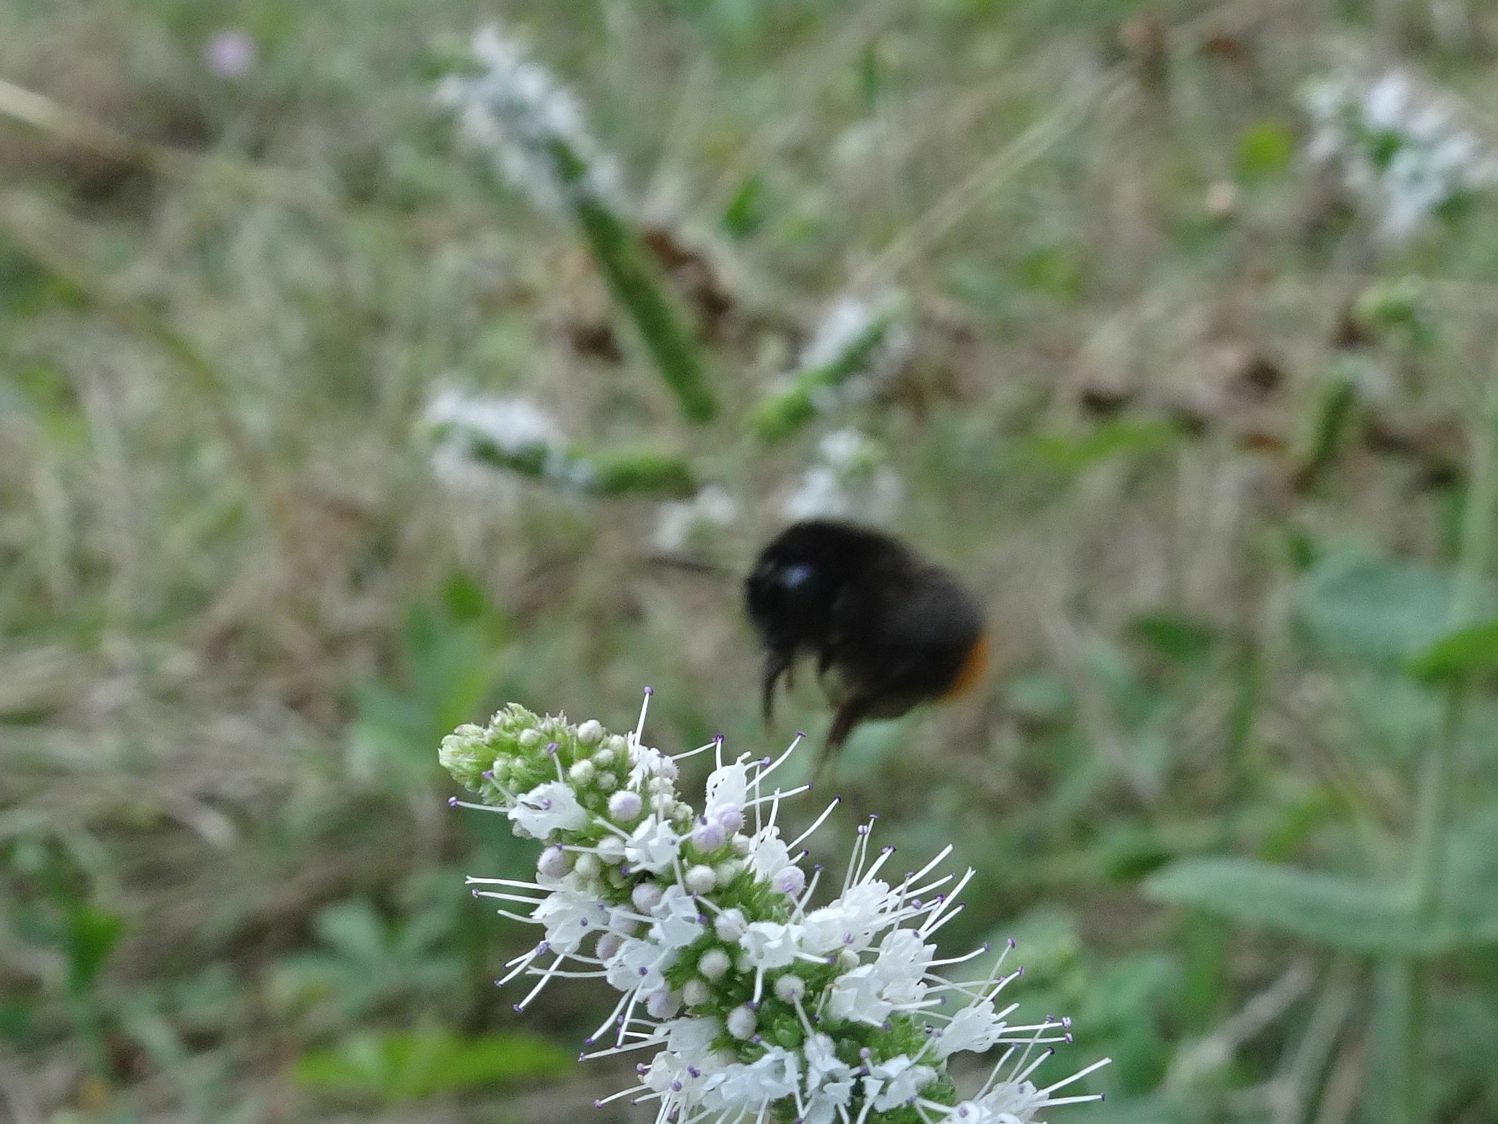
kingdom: Animalia
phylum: Arthropoda
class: Insecta
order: Hymenoptera
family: Apidae
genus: Bombus
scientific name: Bombus lapidarius
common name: Large red-tailed humble-bee
